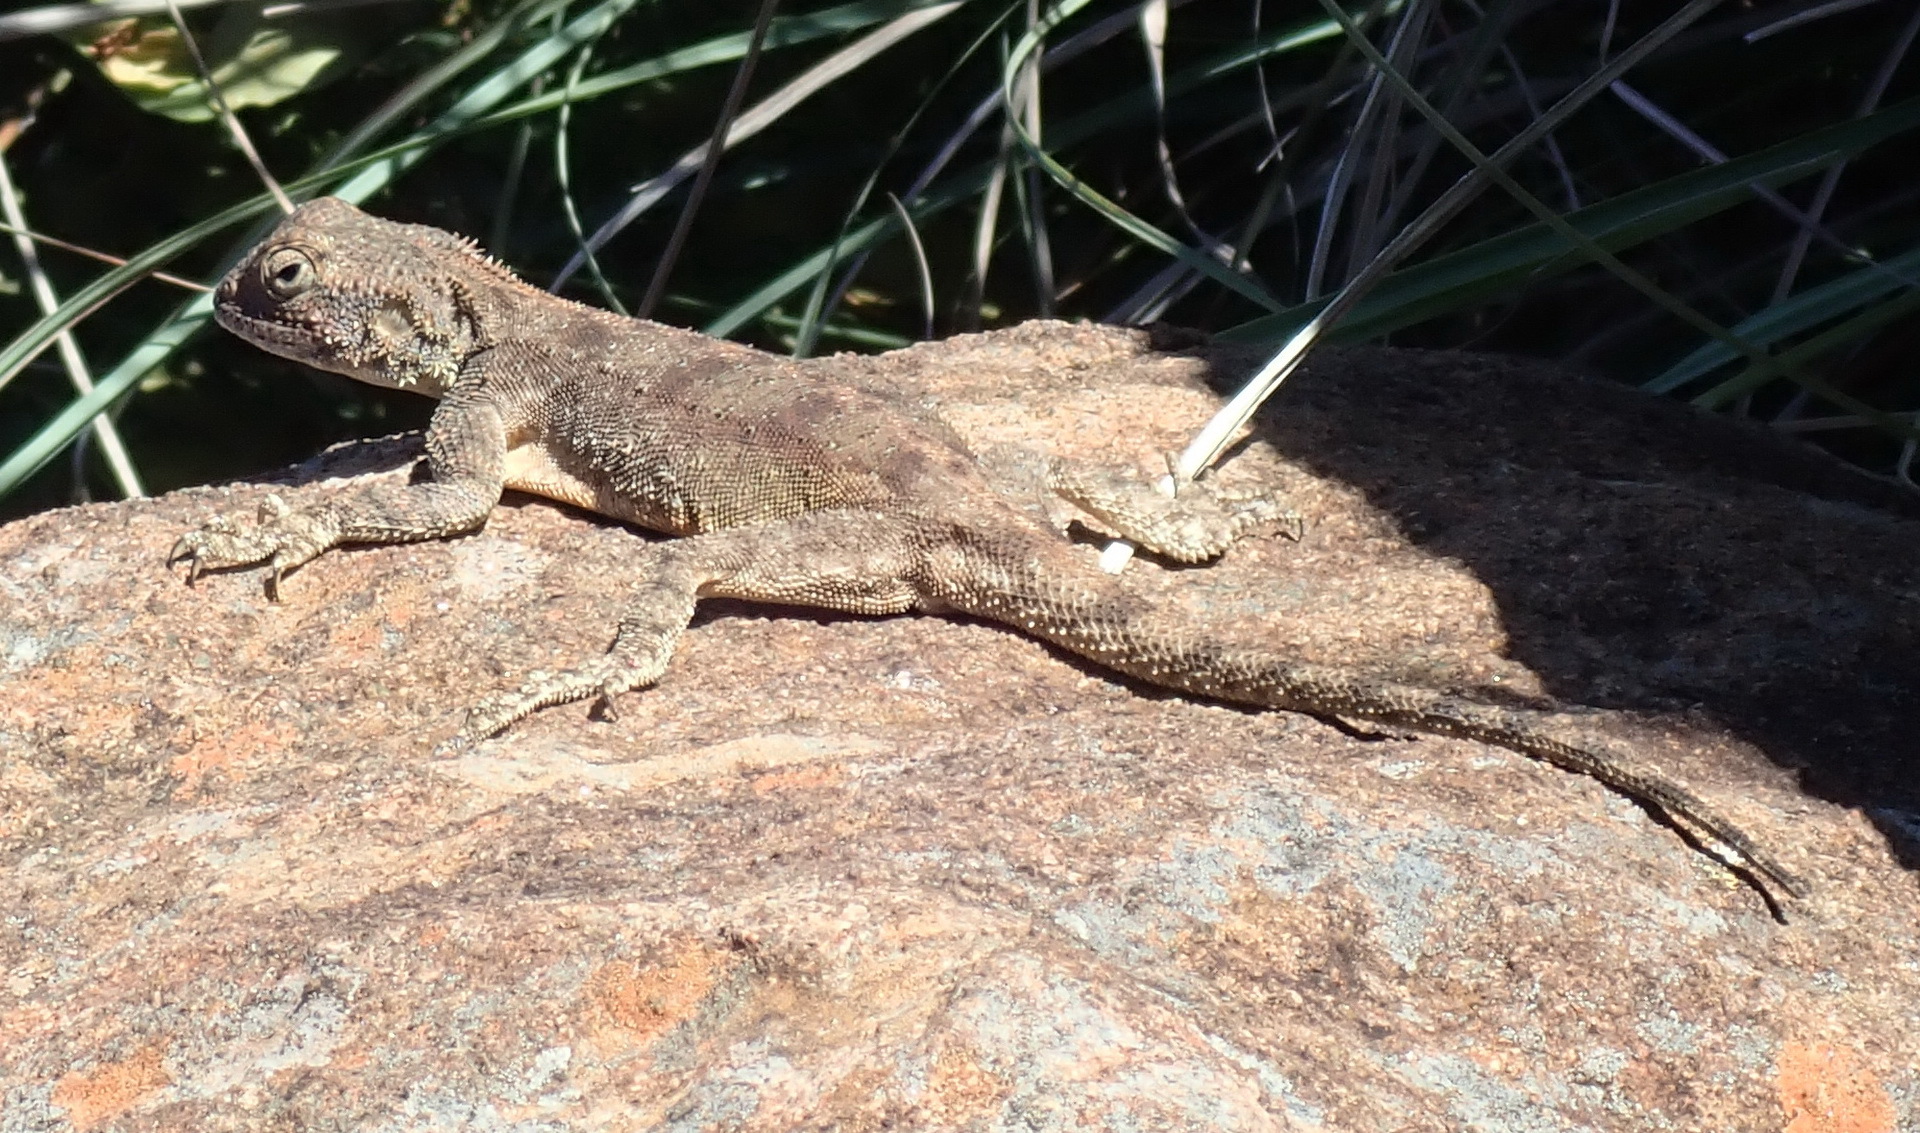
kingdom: Animalia
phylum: Chordata
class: Squamata
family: Agamidae
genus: Agama
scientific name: Agama atra
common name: Southern african rock agama
